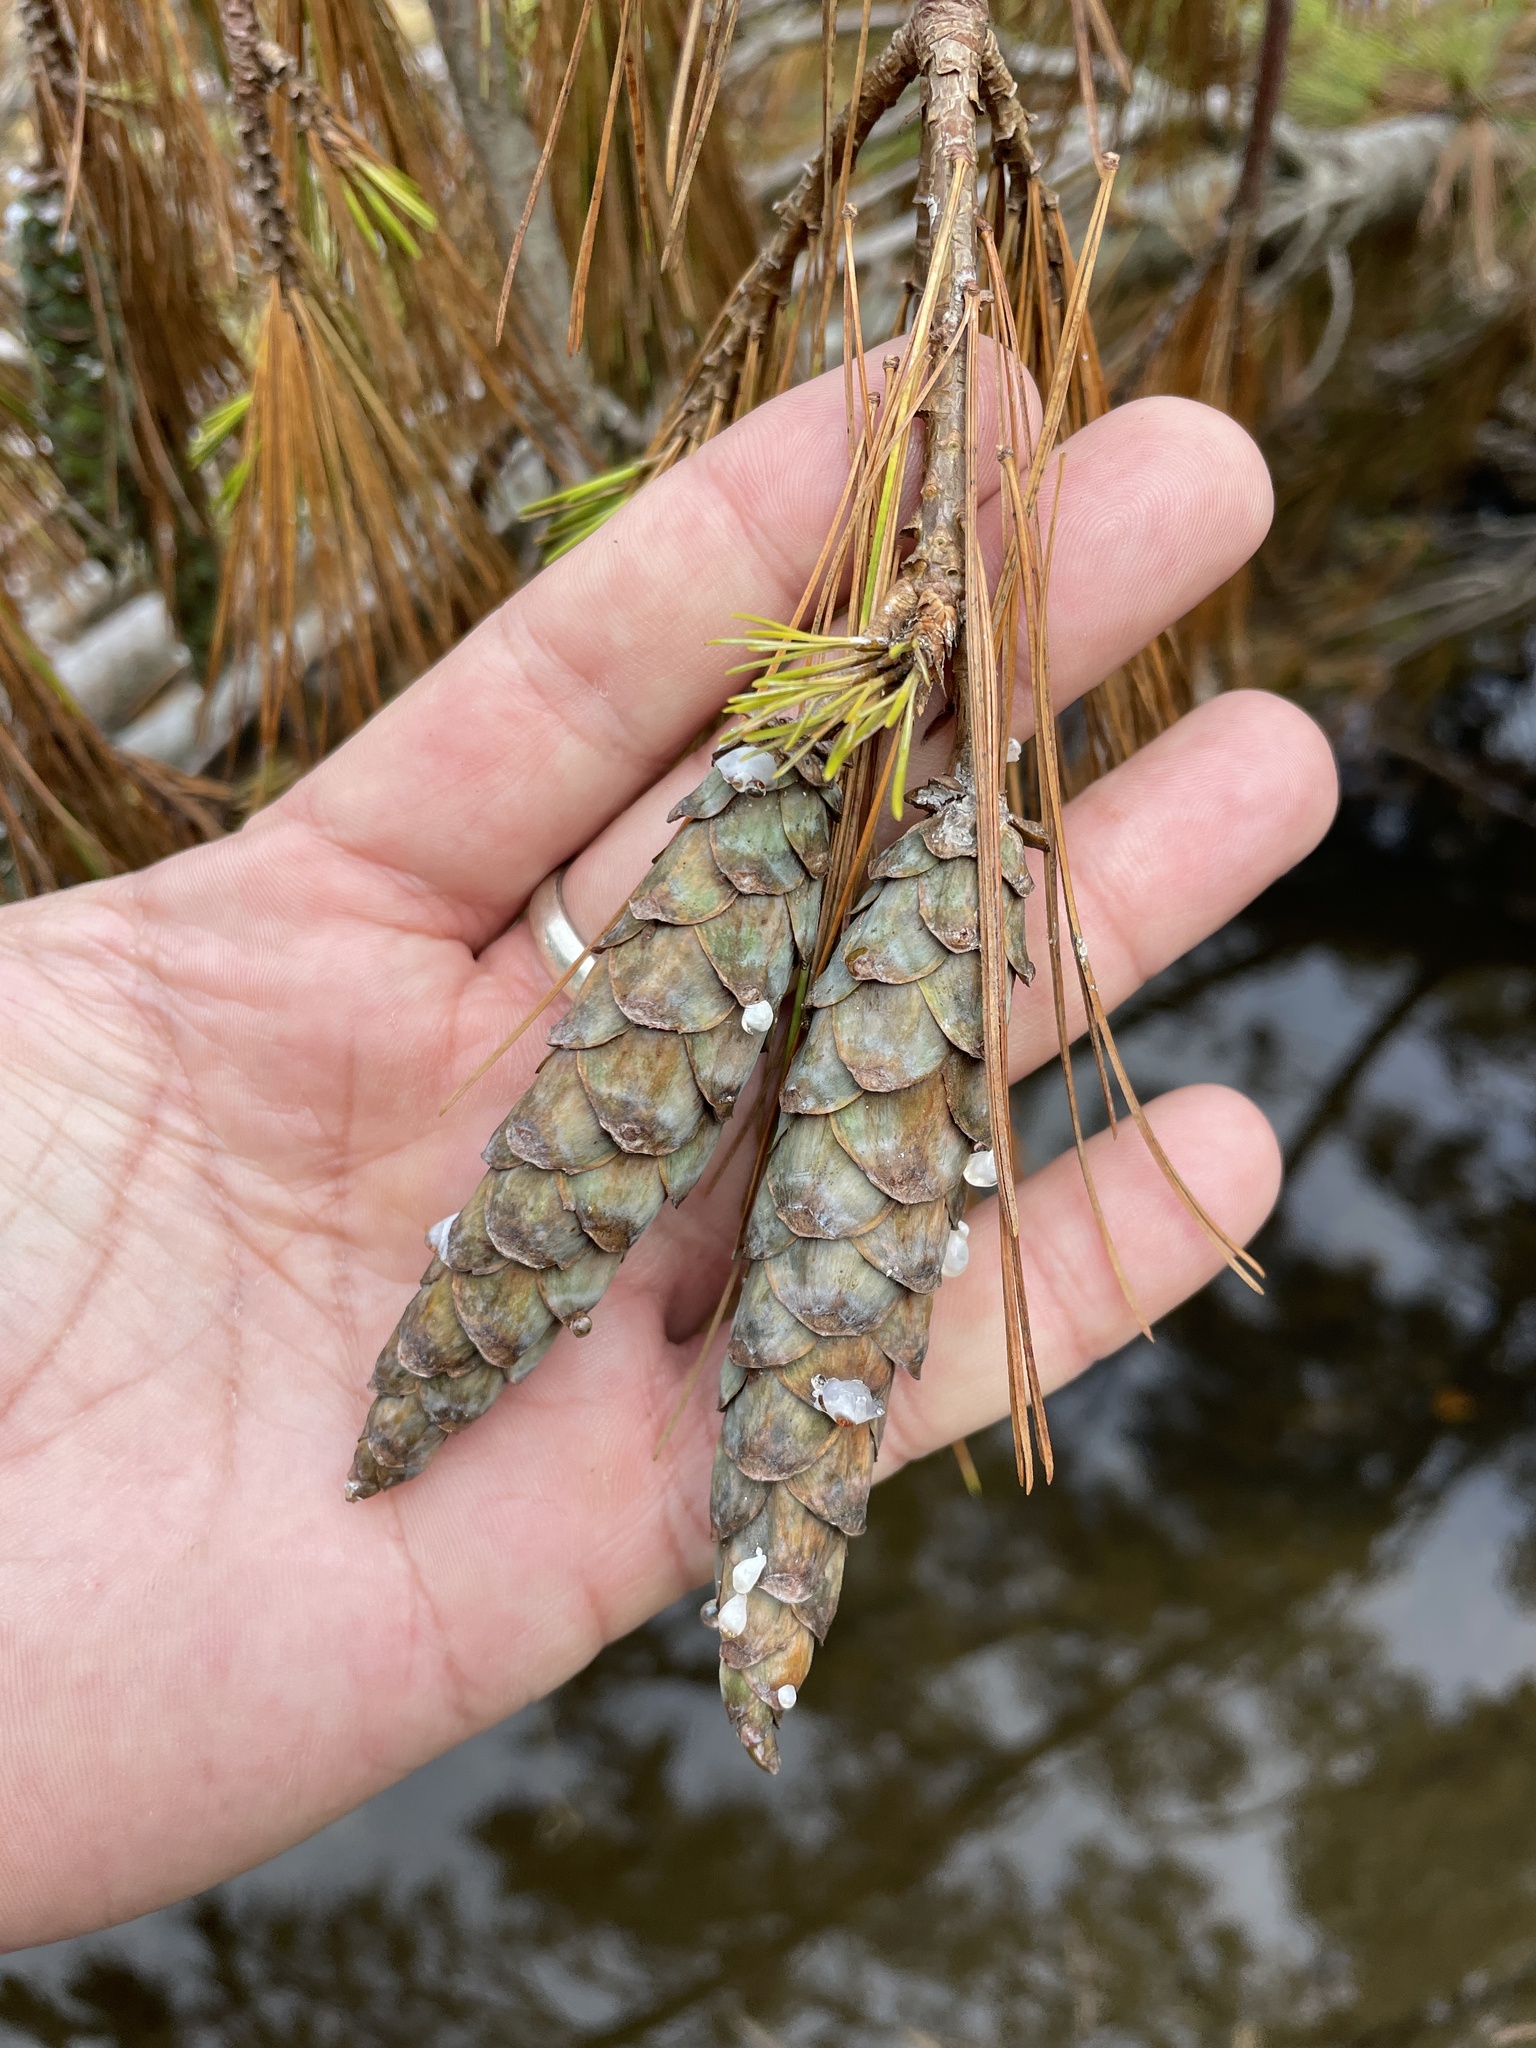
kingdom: Plantae
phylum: Tracheophyta
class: Pinopsida
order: Pinales
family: Pinaceae
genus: Pinus
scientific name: Pinus strobus
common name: Weymouth pine
